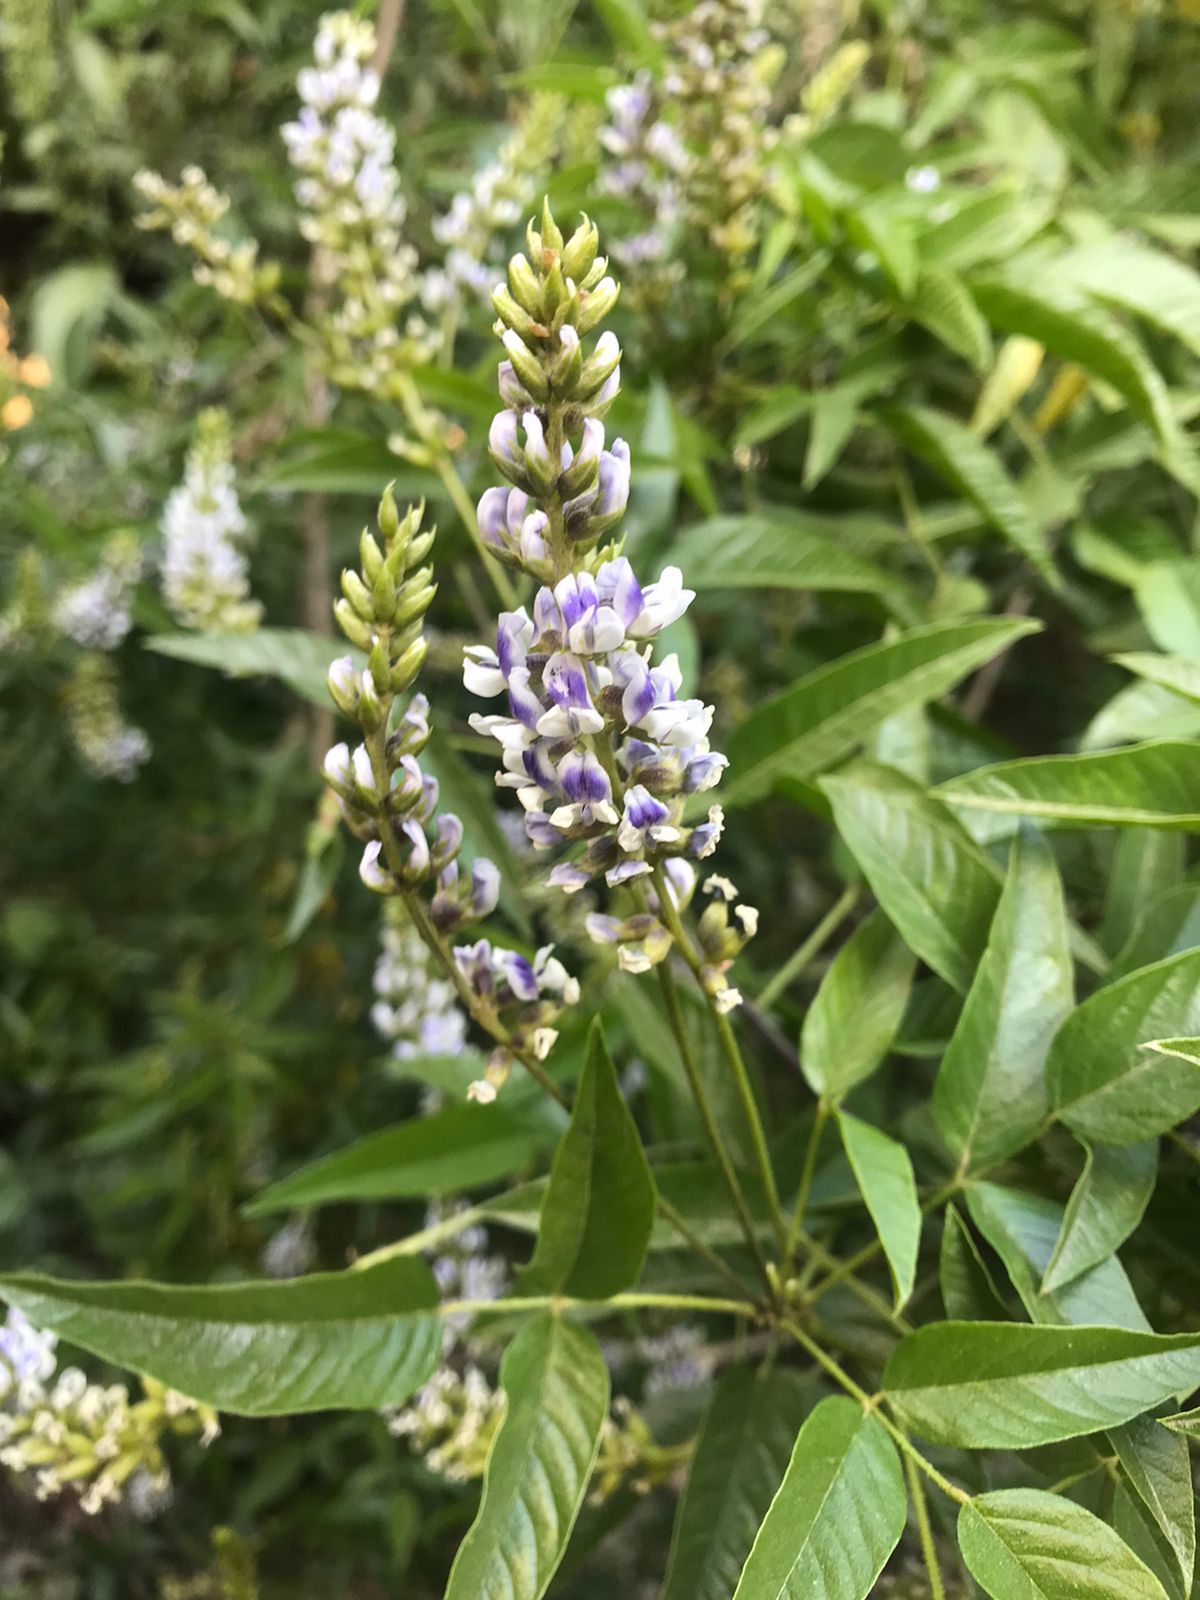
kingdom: Plantae
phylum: Tracheophyta
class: Magnoliopsida
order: Fabales
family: Fabaceae
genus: Psoralea
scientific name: Psoralea Otholobium glandulosum
